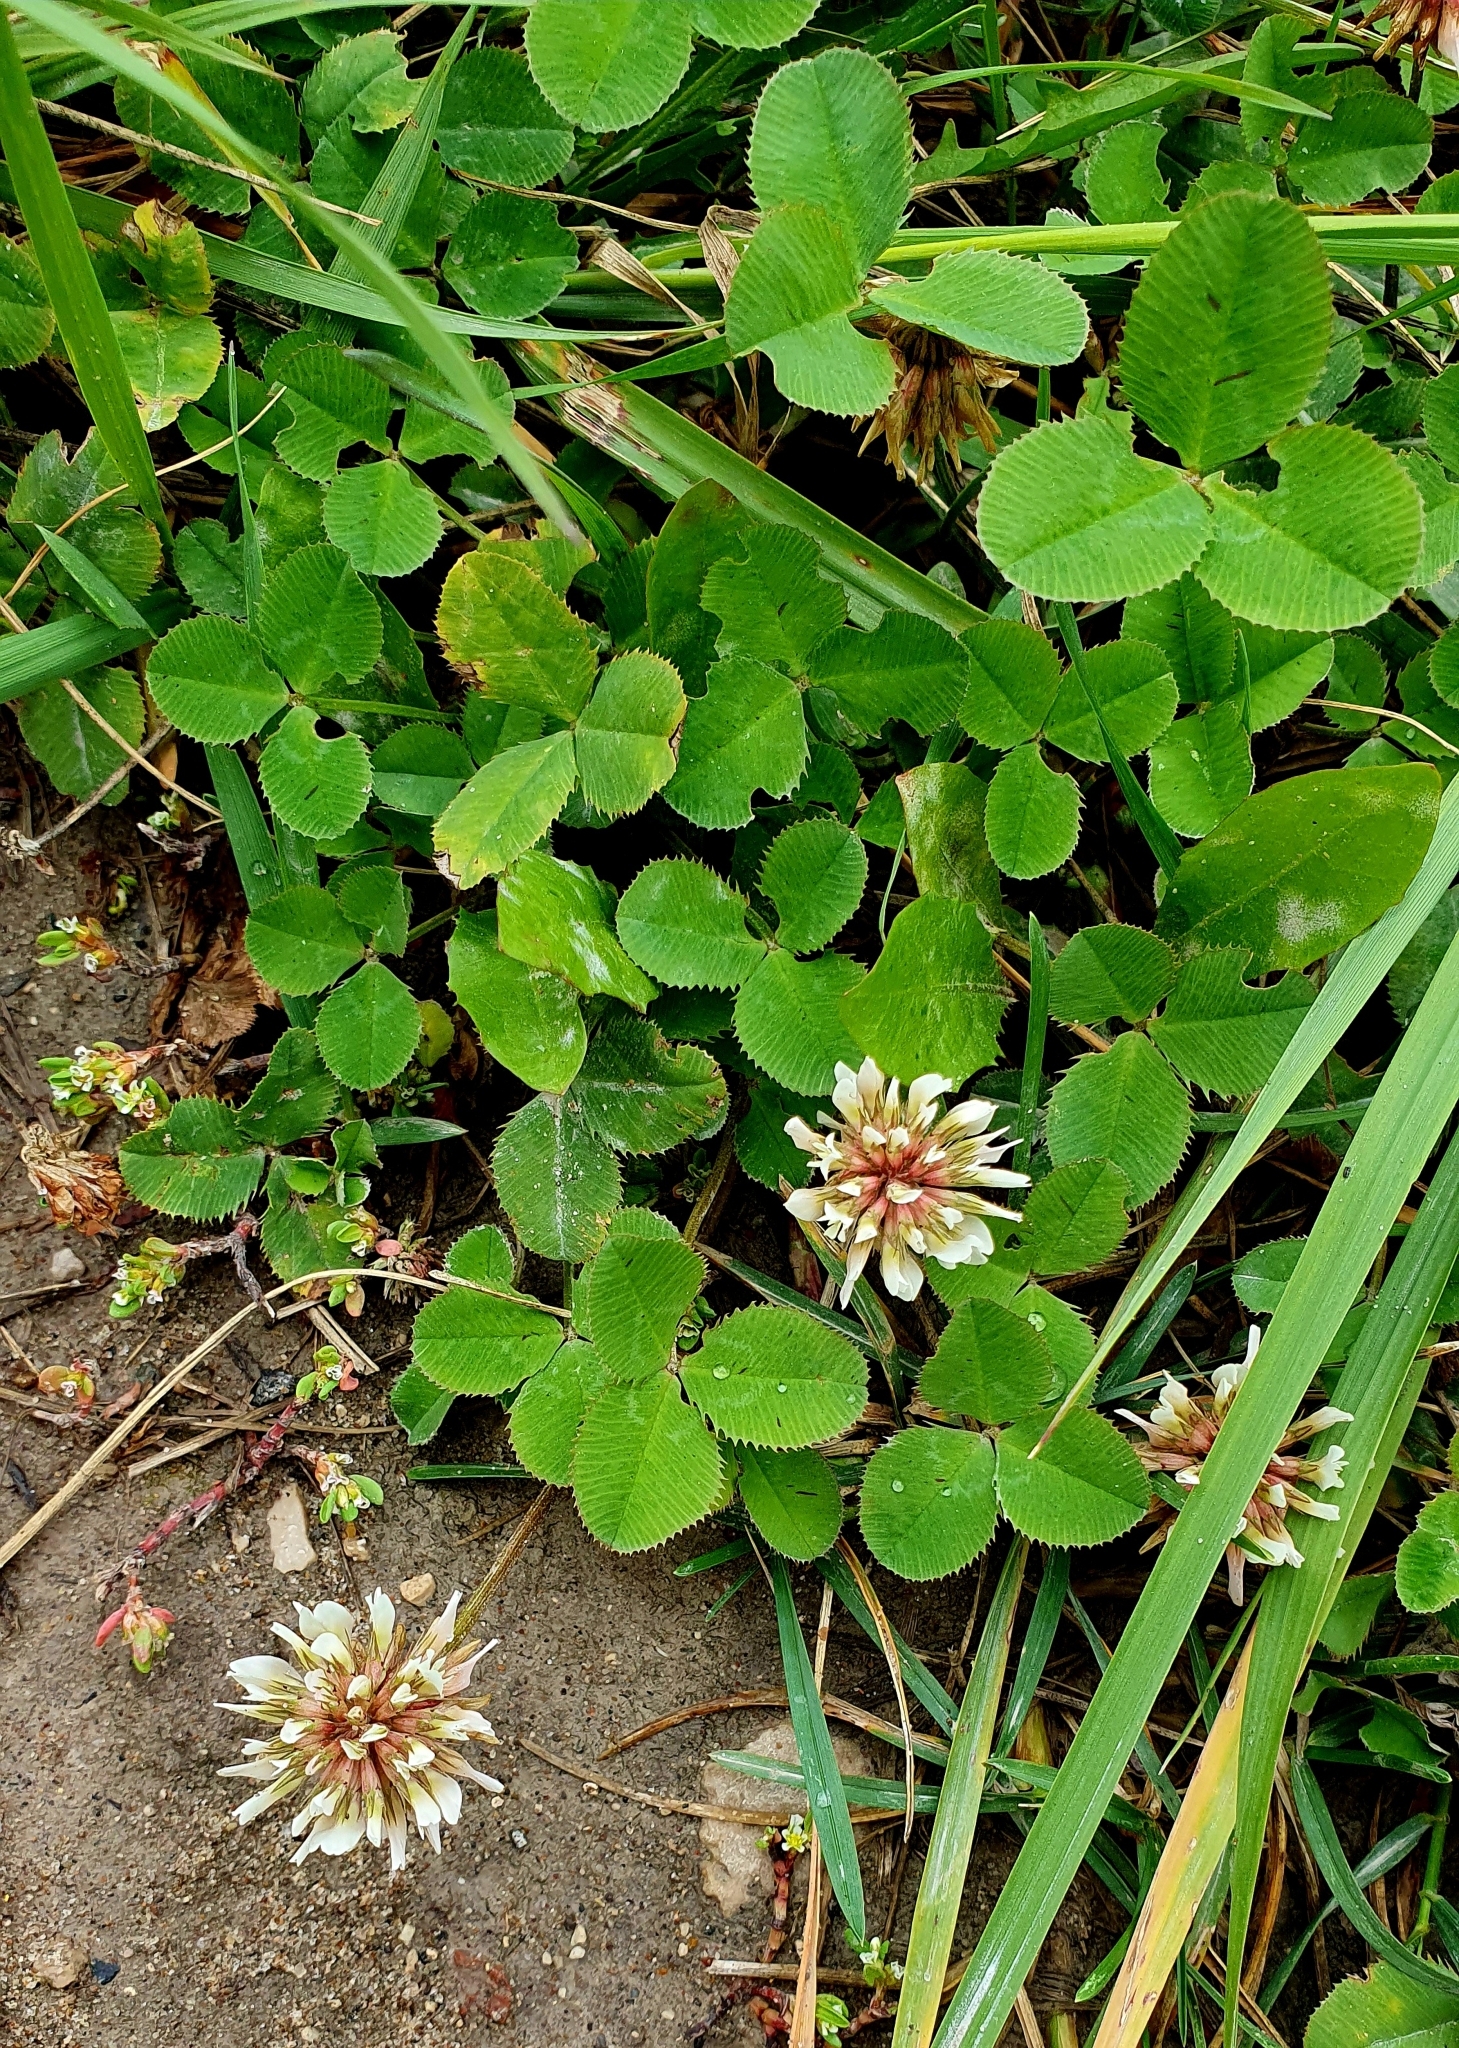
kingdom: Plantae
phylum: Tracheophyta
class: Magnoliopsida
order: Fabales
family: Fabaceae
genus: Trifolium
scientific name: Trifolium repens
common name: White clover
